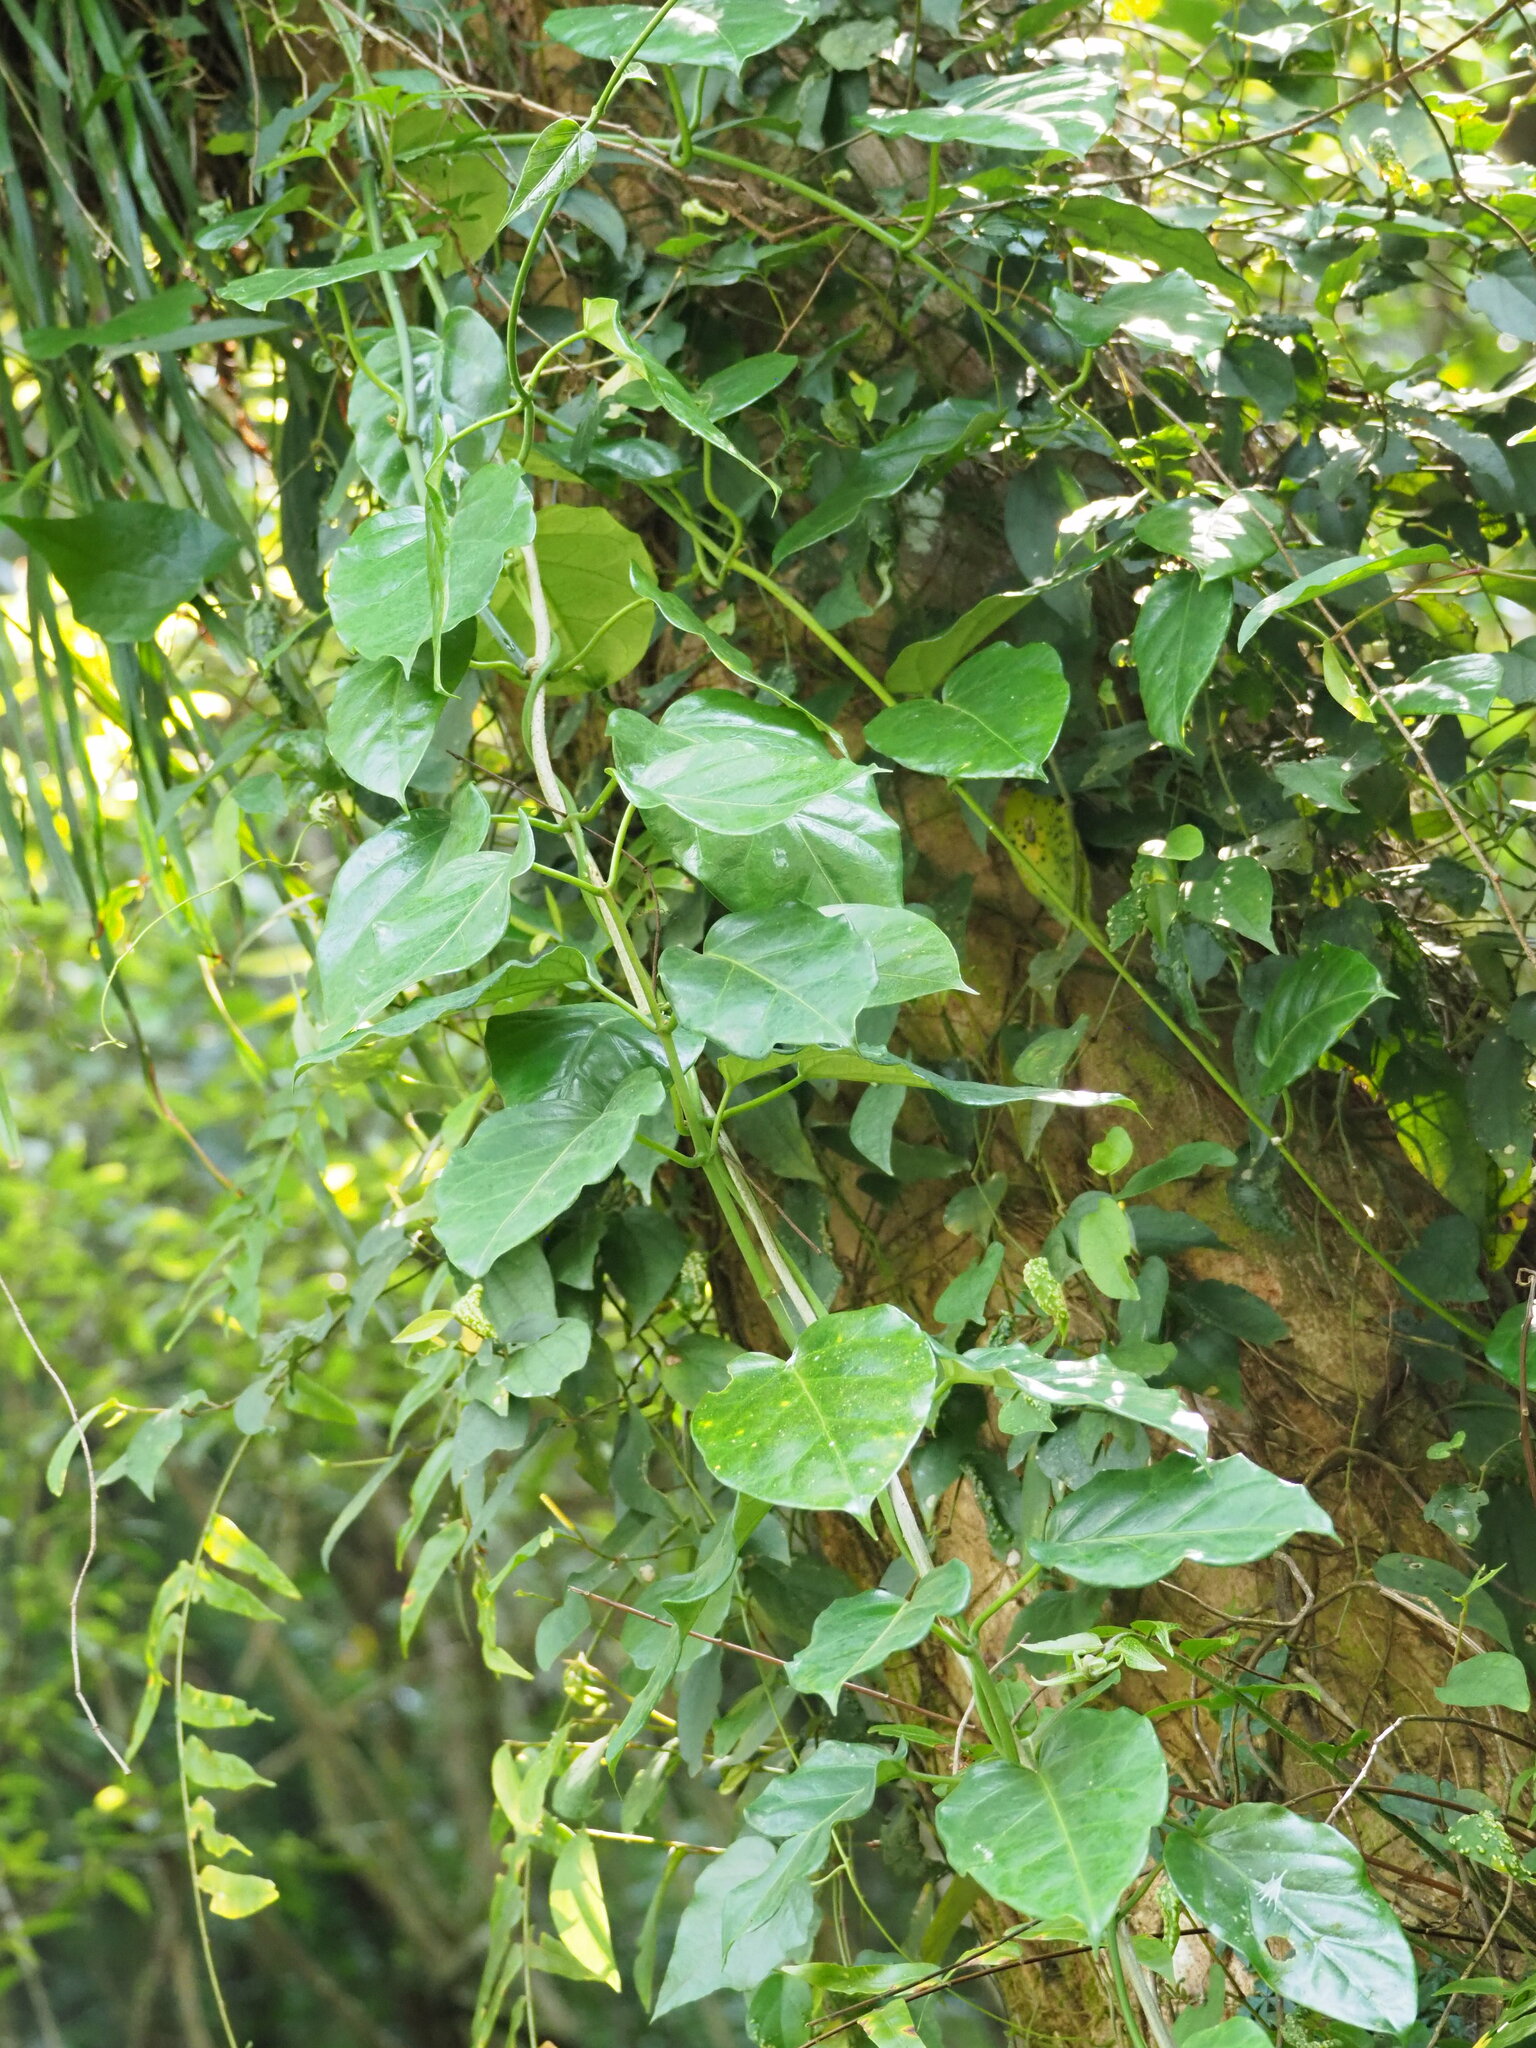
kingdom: Plantae
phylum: Tracheophyta
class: Magnoliopsida
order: Gentianales
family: Apocynaceae
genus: Sinomarsdenia
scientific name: Sinomarsdenia formosana
